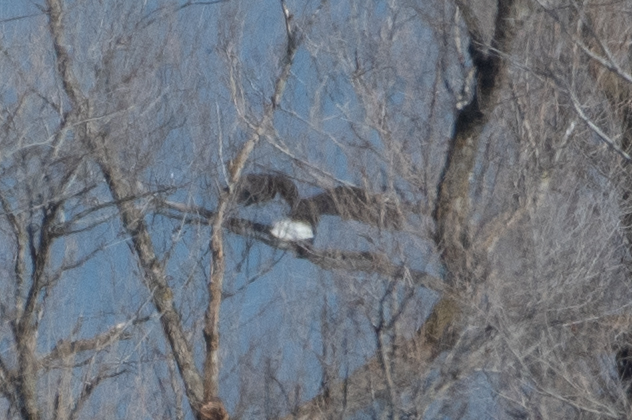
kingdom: Animalia
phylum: Chordata
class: Aves
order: Accipitriformes
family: Accipitridae
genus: Haliaeetus
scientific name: Haliaeetus leucocephalus
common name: Bald eagle
